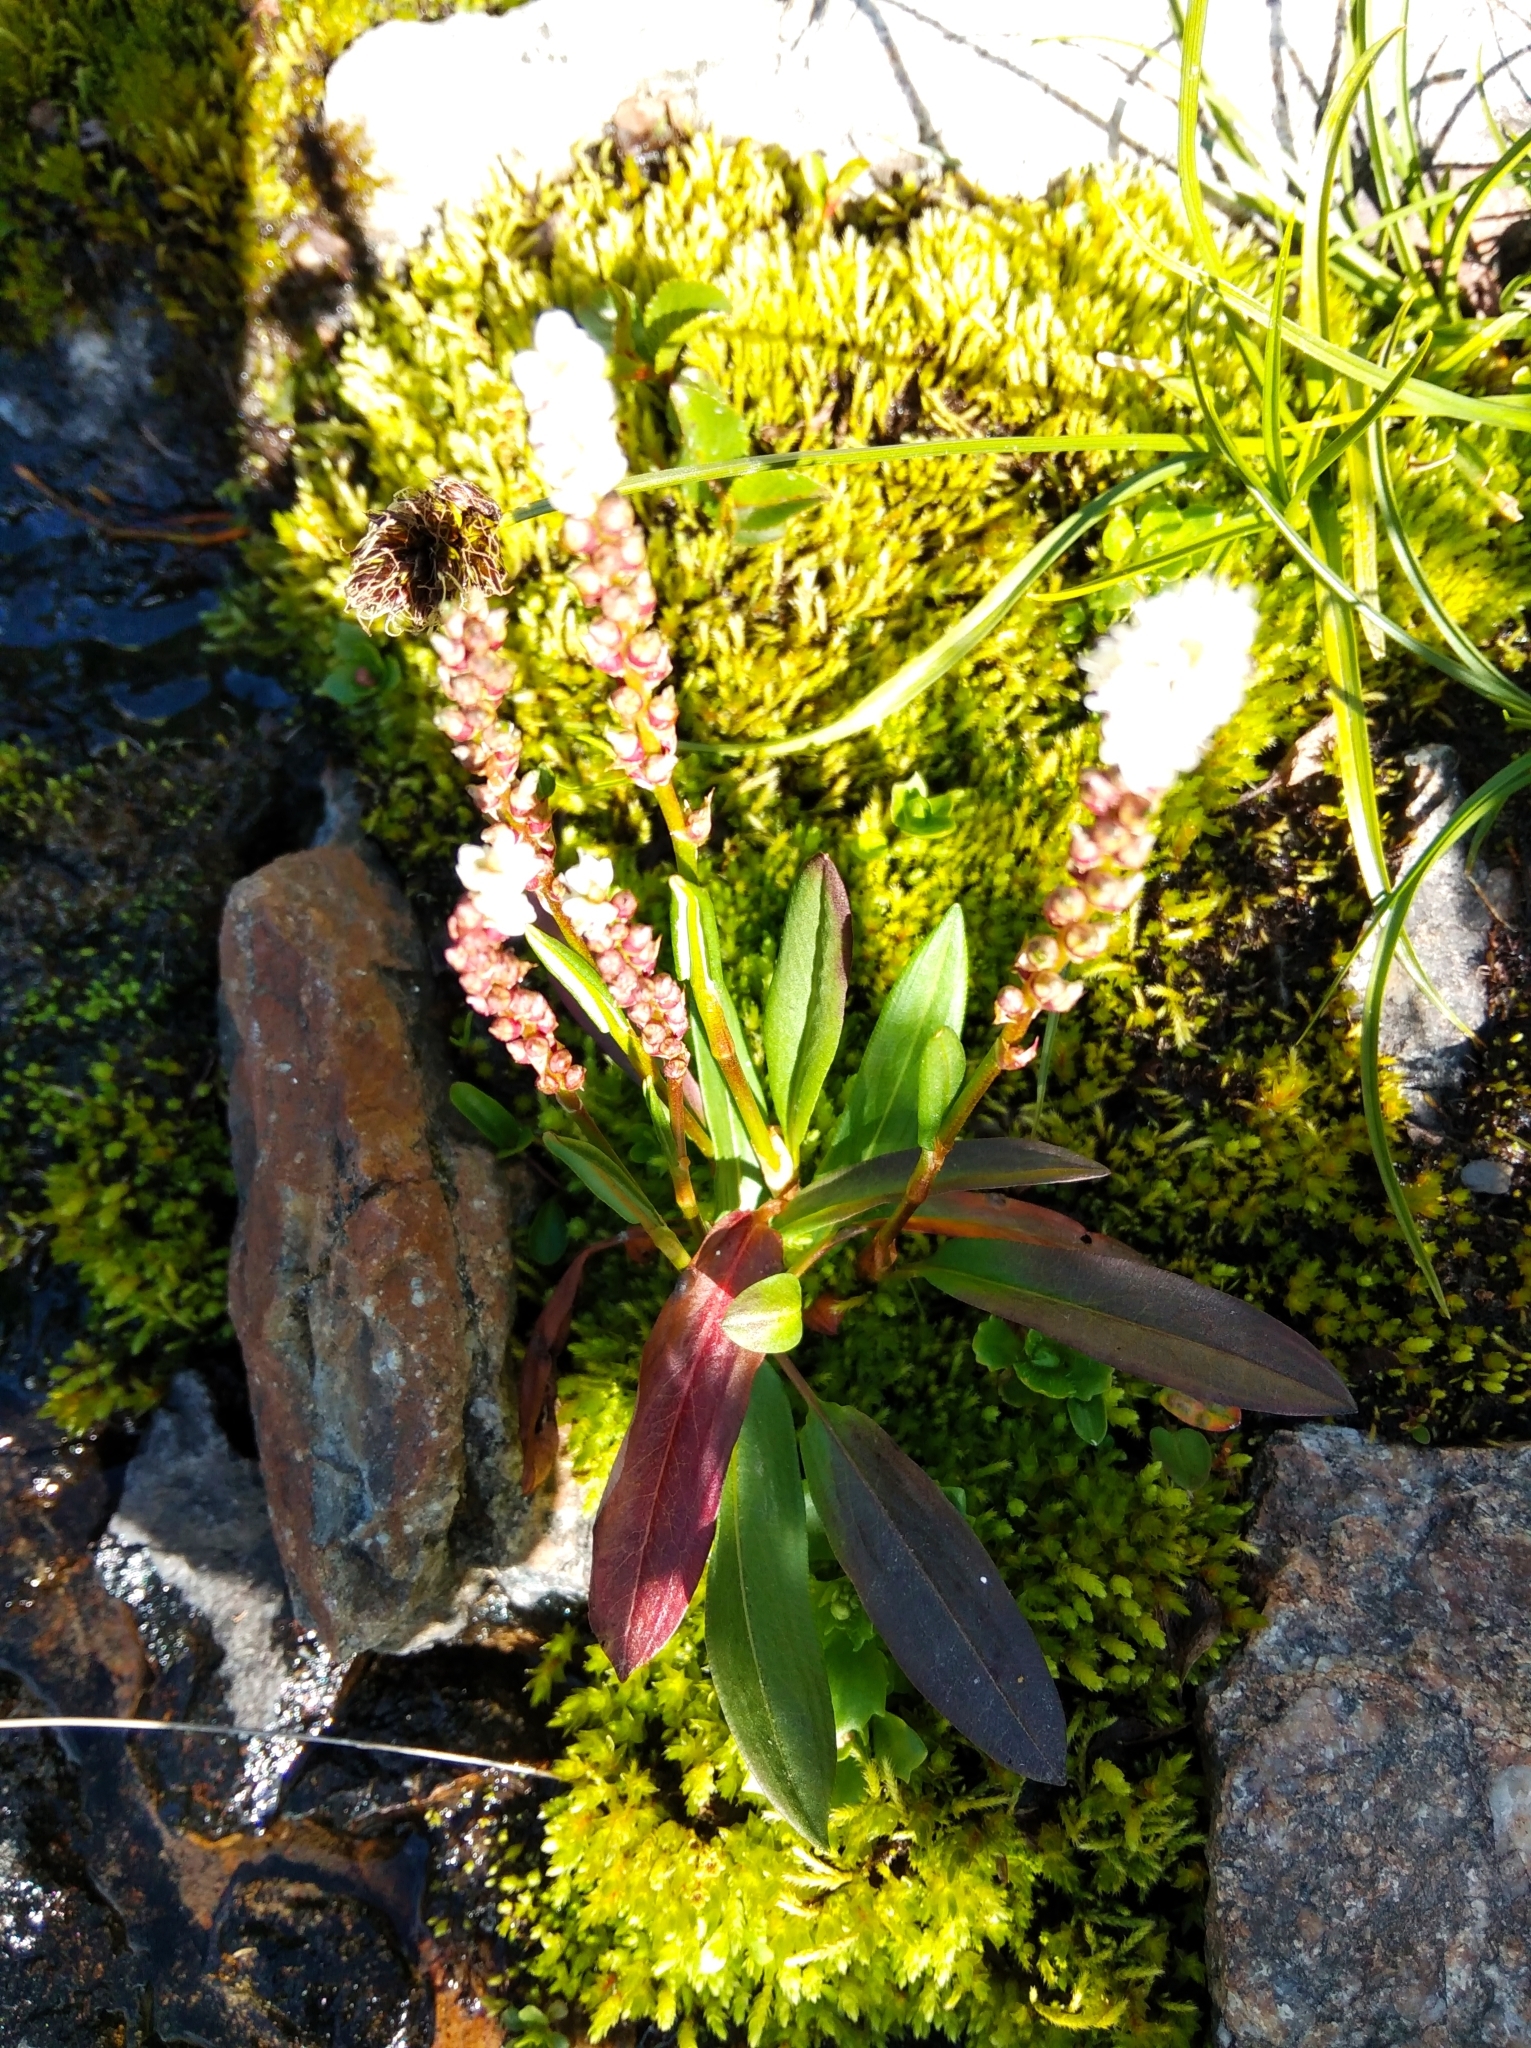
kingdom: Plantae
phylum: Tracheophyta
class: Magnoliopsida
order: Caryophyllales
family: Polygonaceae
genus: Bistorta
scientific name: Bistorta vivipara
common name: Alpine bistort
